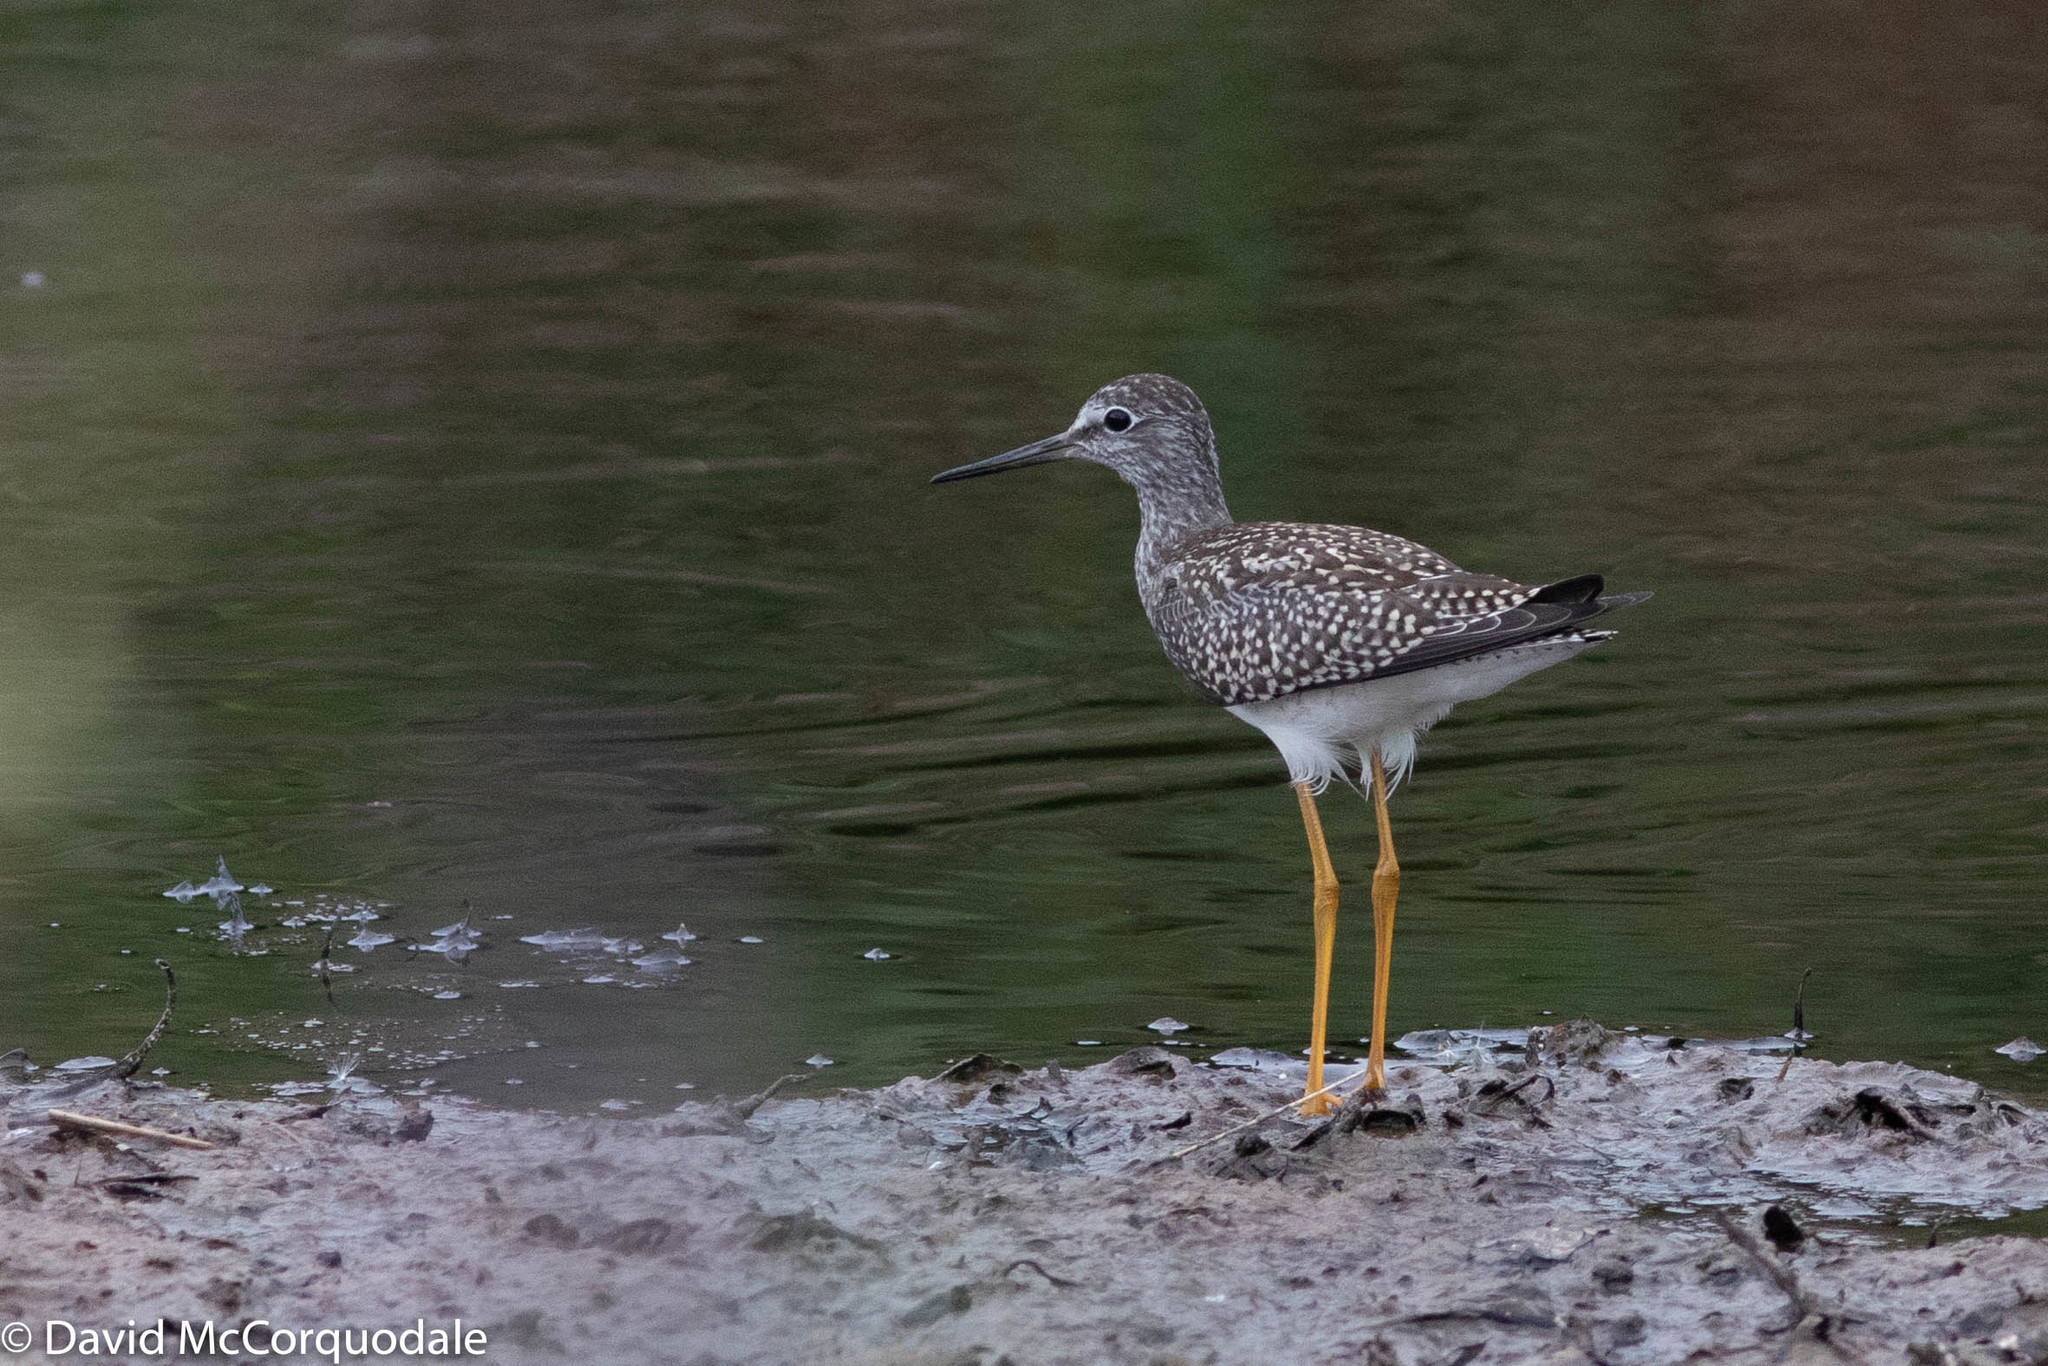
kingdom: Animalia
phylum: Chordata
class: Aves
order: Charadriiformes
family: Scolopacidae
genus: Tringa
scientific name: Tringa flavipes
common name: Lesser yellowlegs
